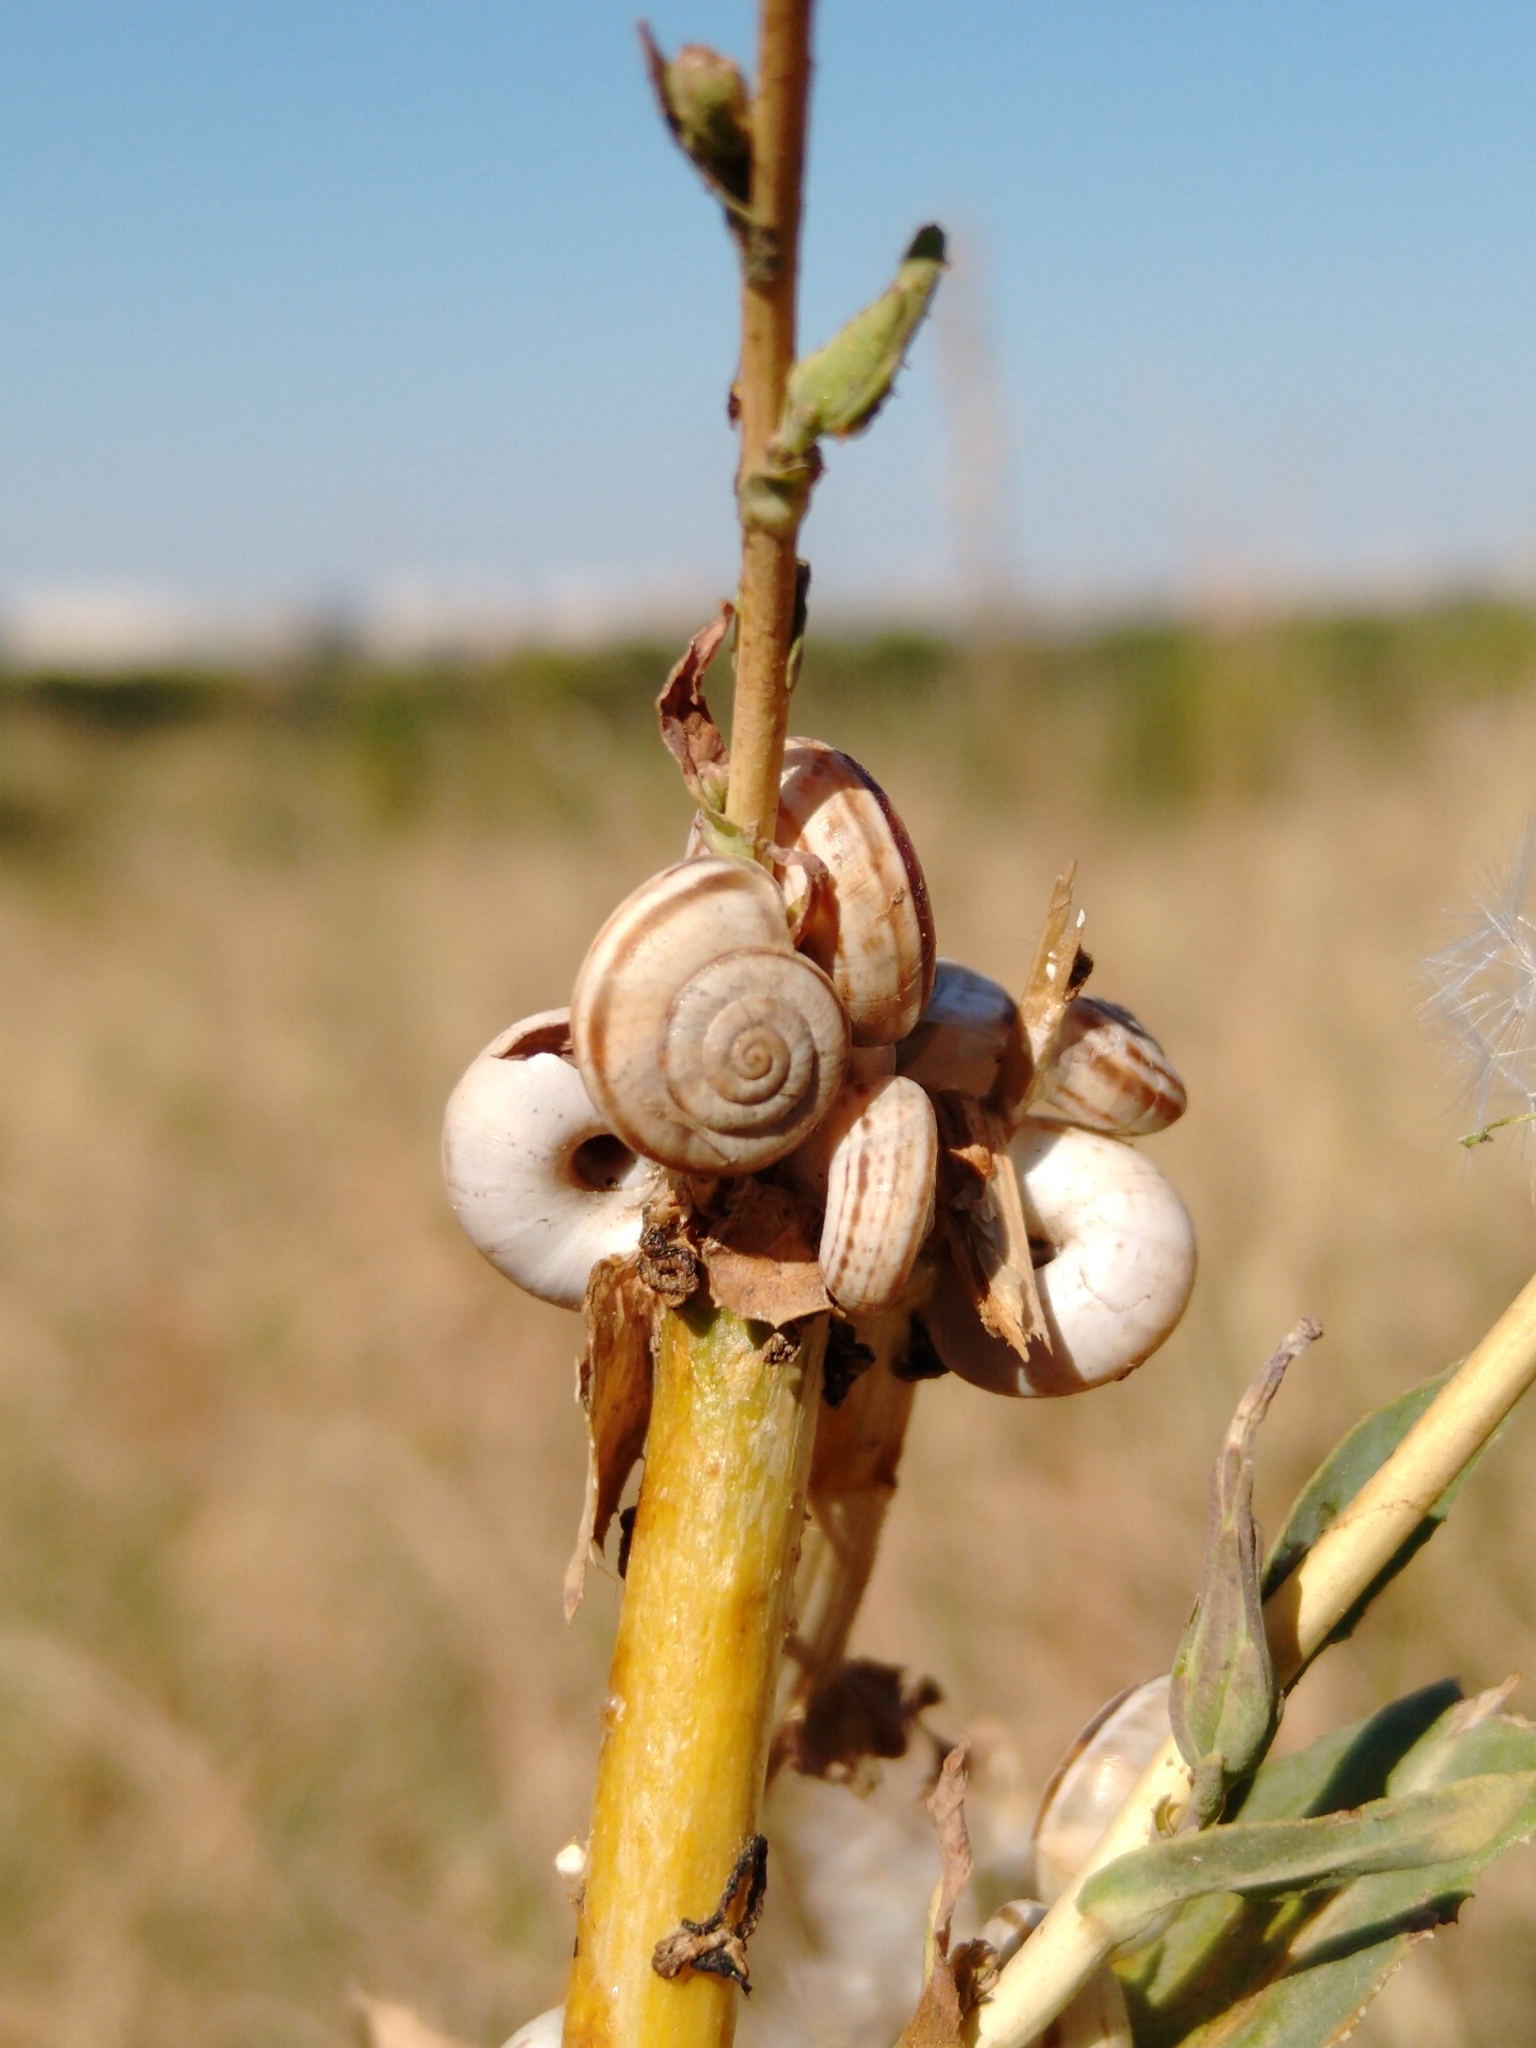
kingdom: Animalia
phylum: Mollusca
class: Gastropoda
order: Stylommatophora
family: Geomitridae
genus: Xerolenta
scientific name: Xerolenta obvia
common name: White heath snail
